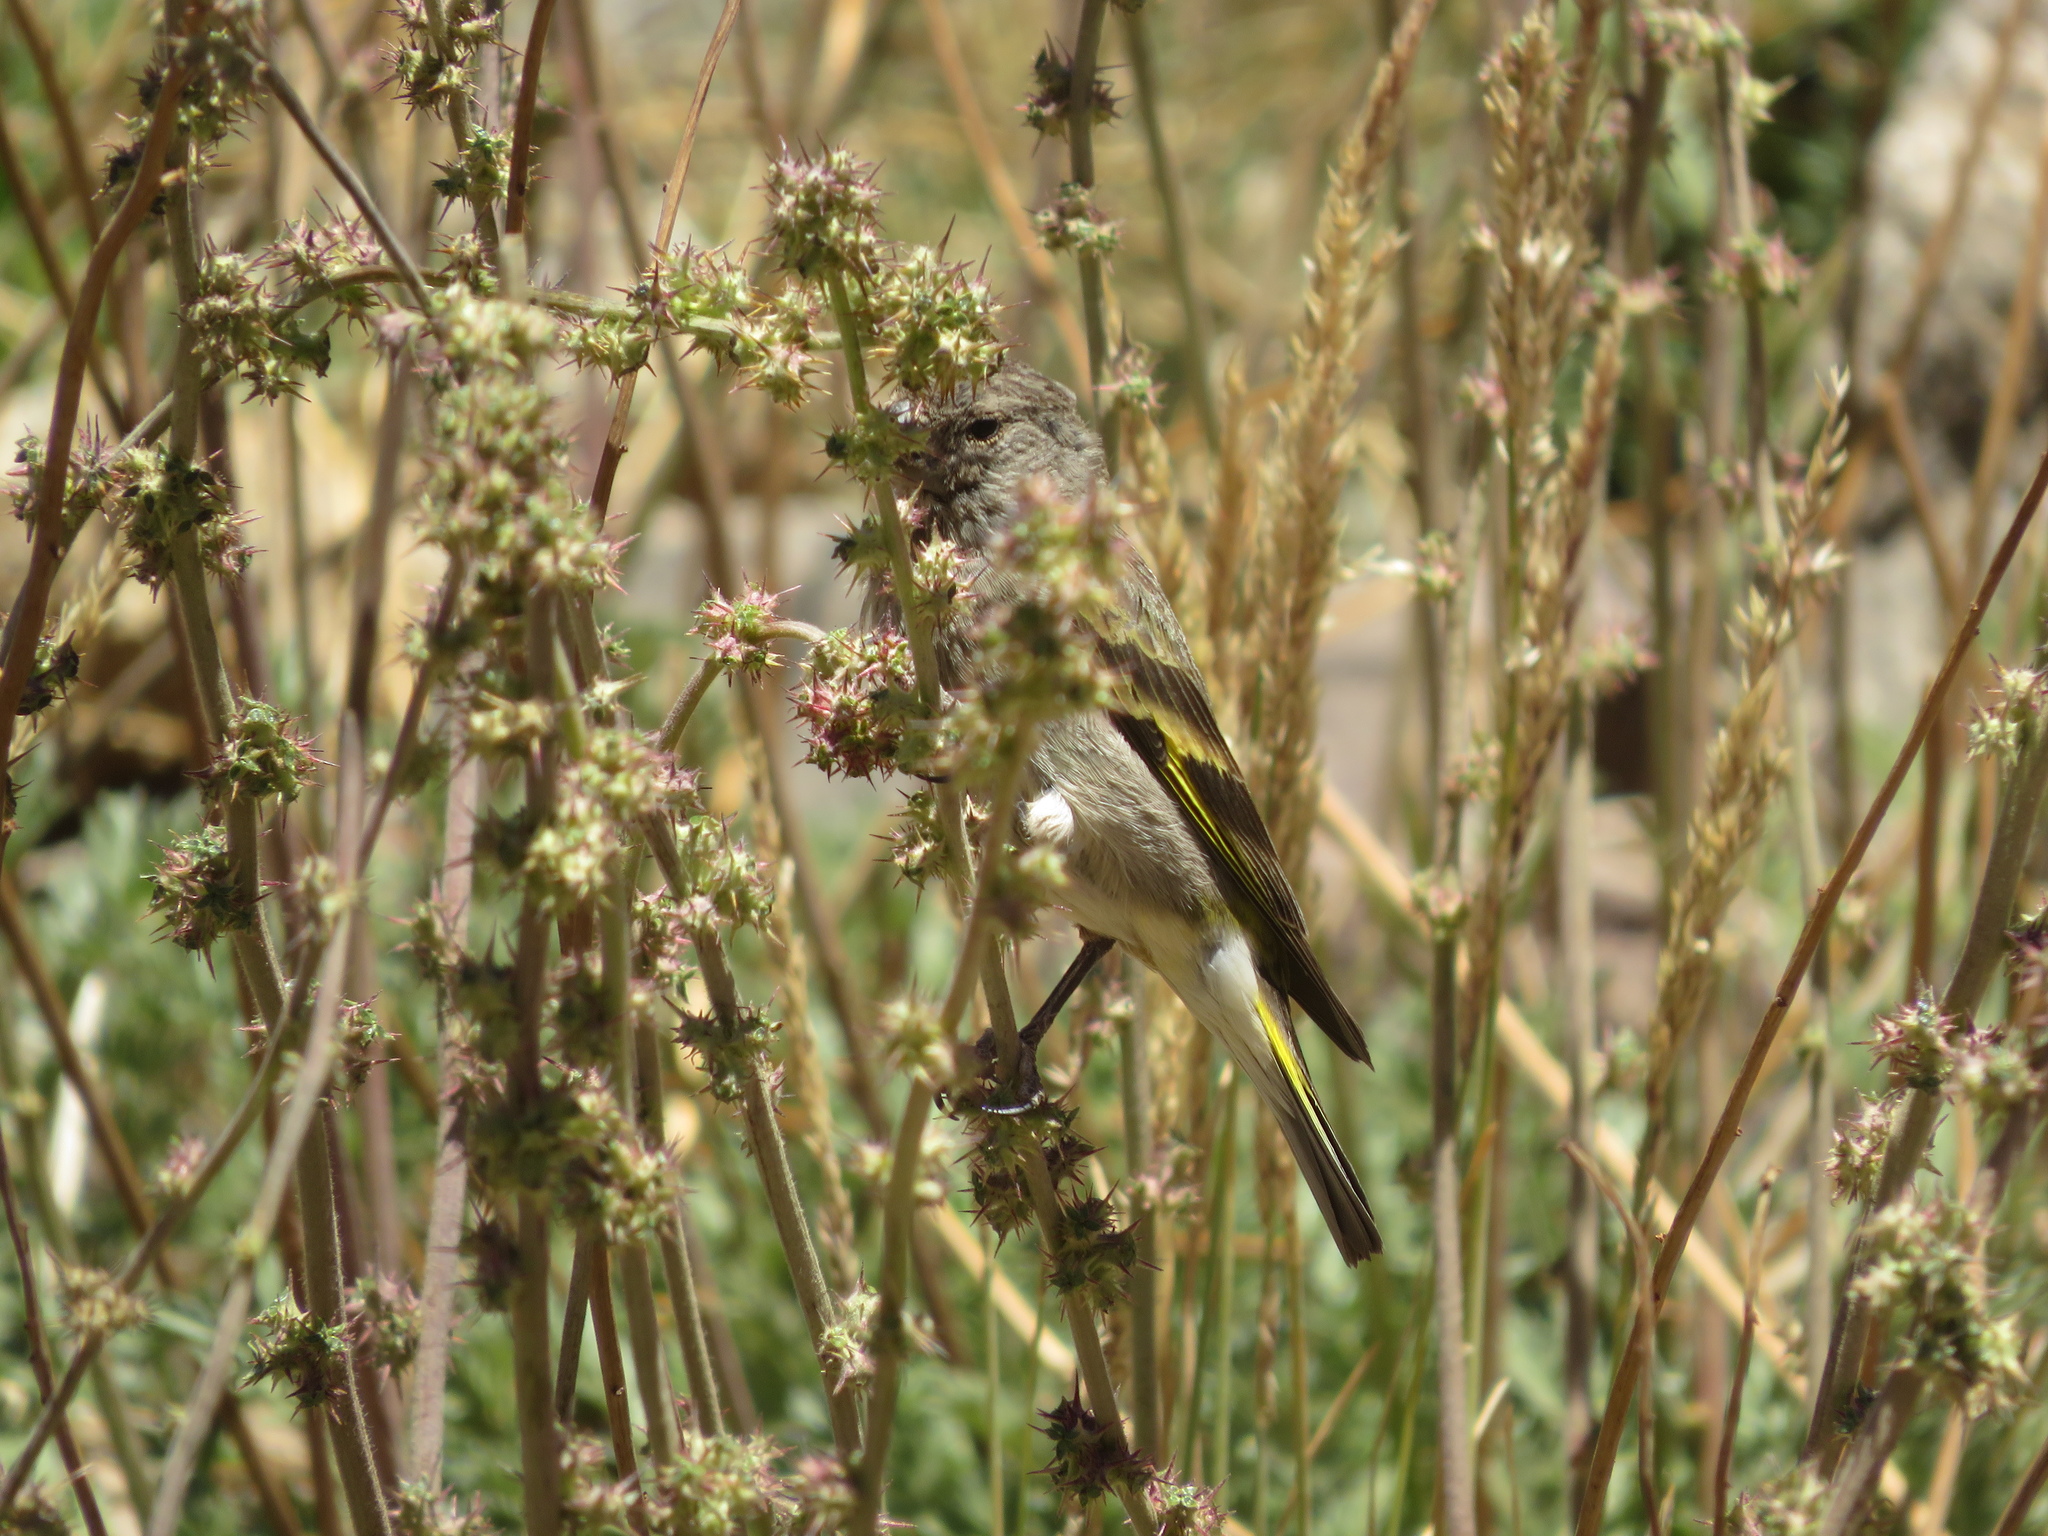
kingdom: Animalia
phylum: Chordata
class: Aves
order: Passeriformes
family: Fringillidae
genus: Spinus
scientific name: Spinus crassirostris
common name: Thick-billed siskin
